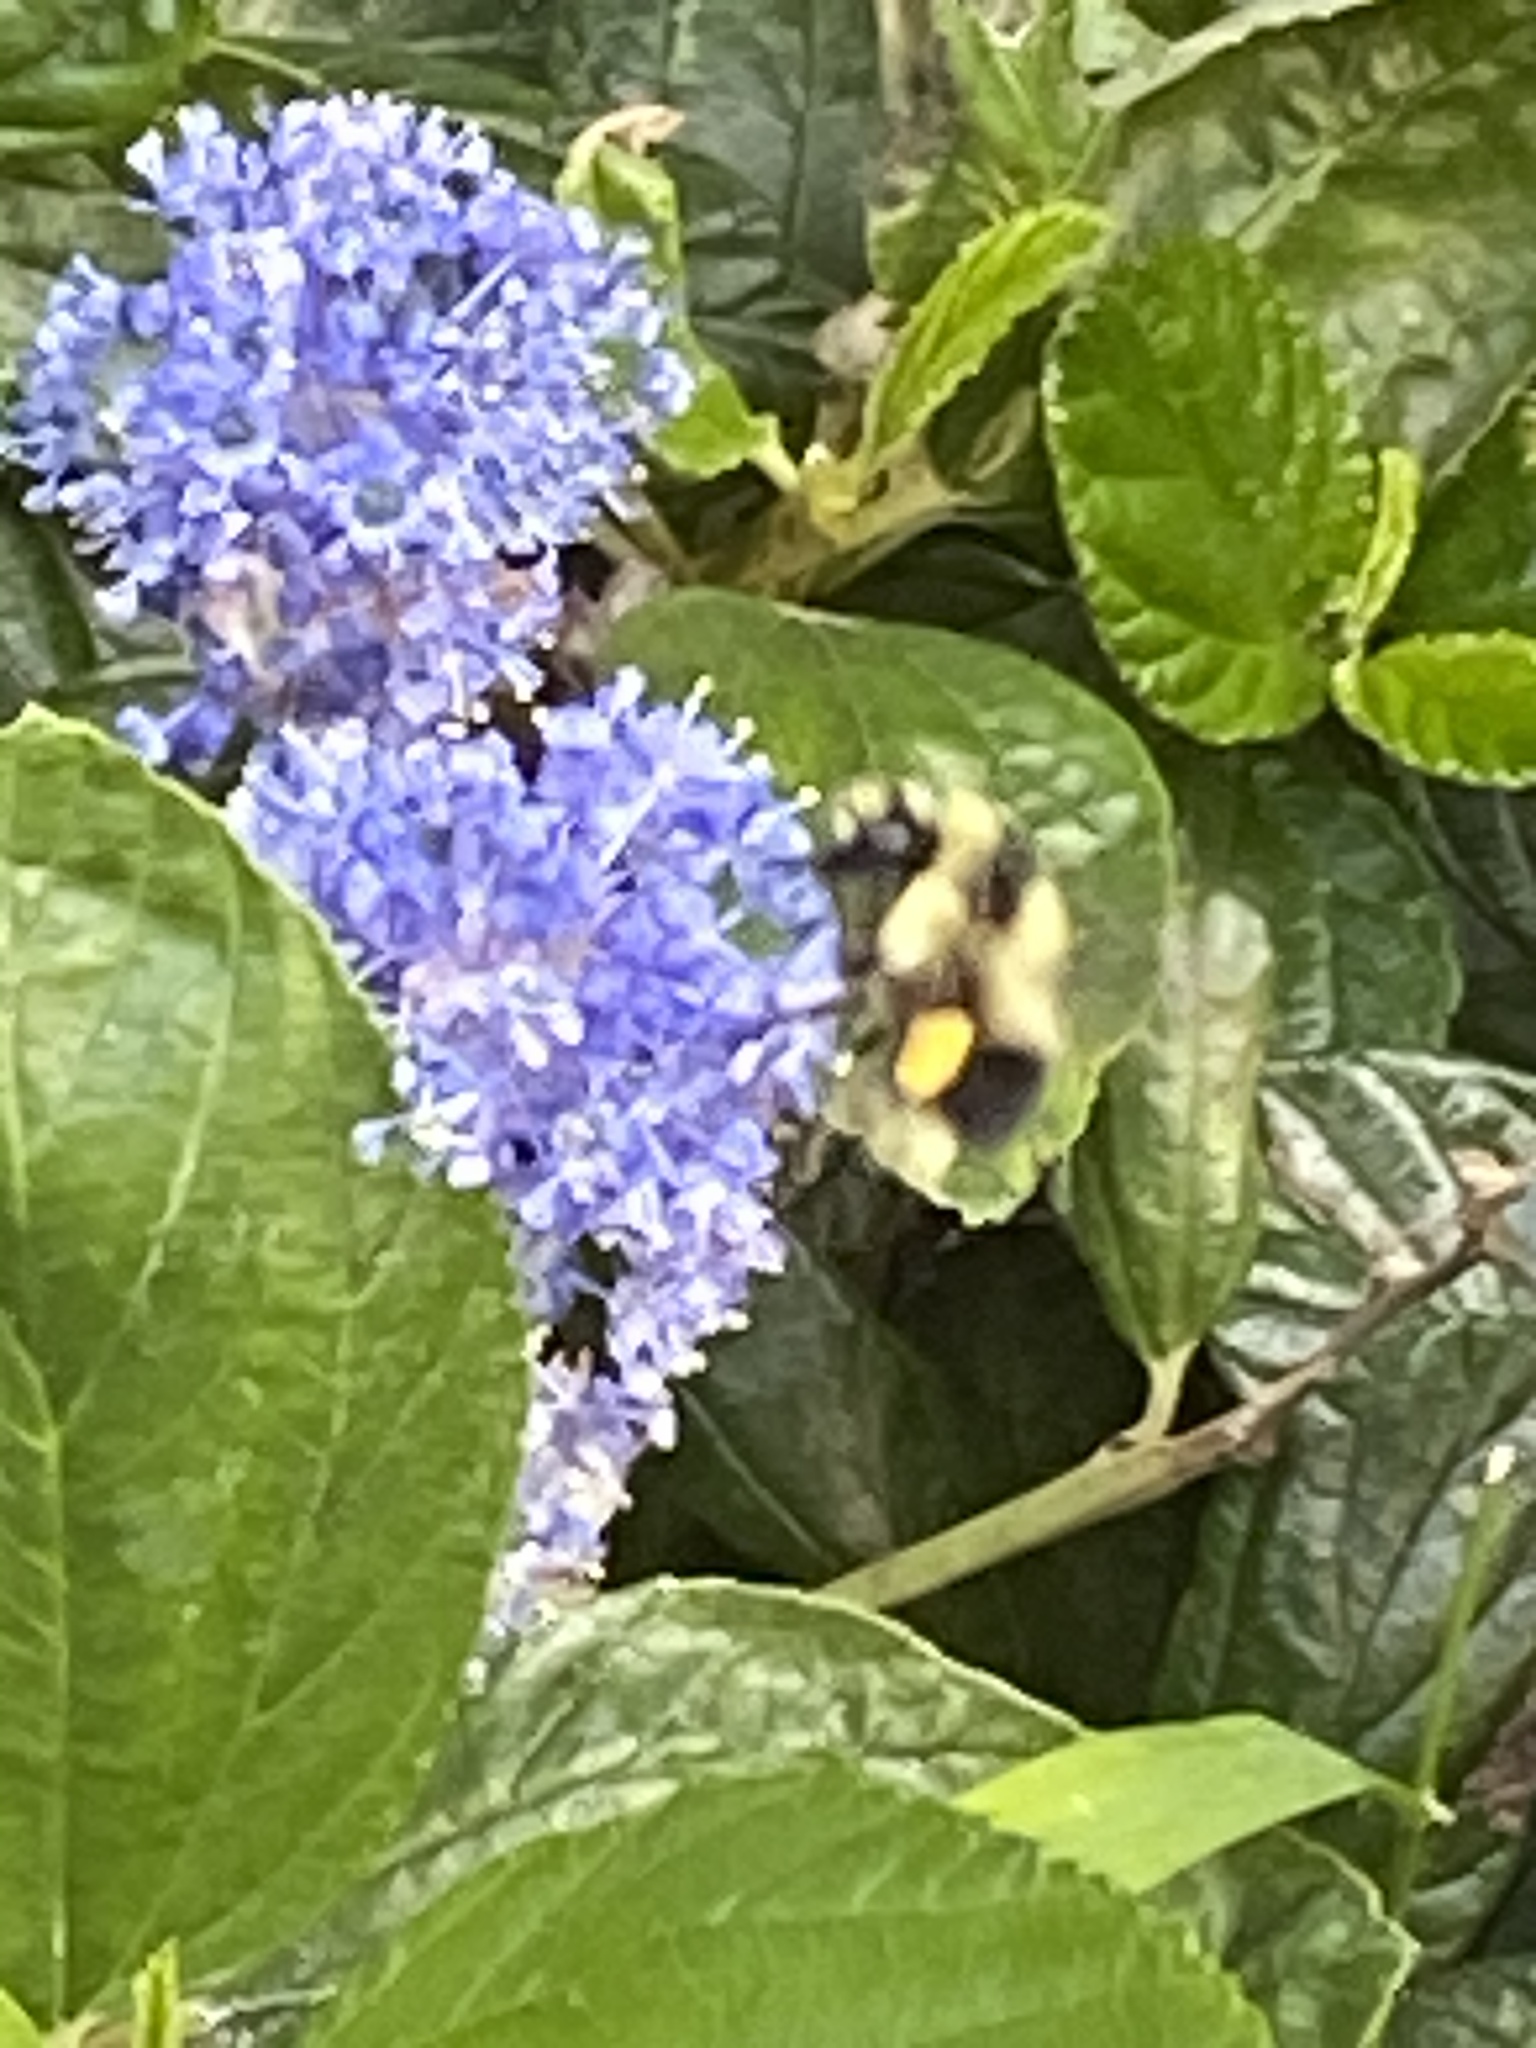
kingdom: Animalia
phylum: Arthropoda
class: Insecta
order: Hymenoptera
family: Apidae
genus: Bombus
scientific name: Bombus melanopygus
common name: Black tail bumble bee
